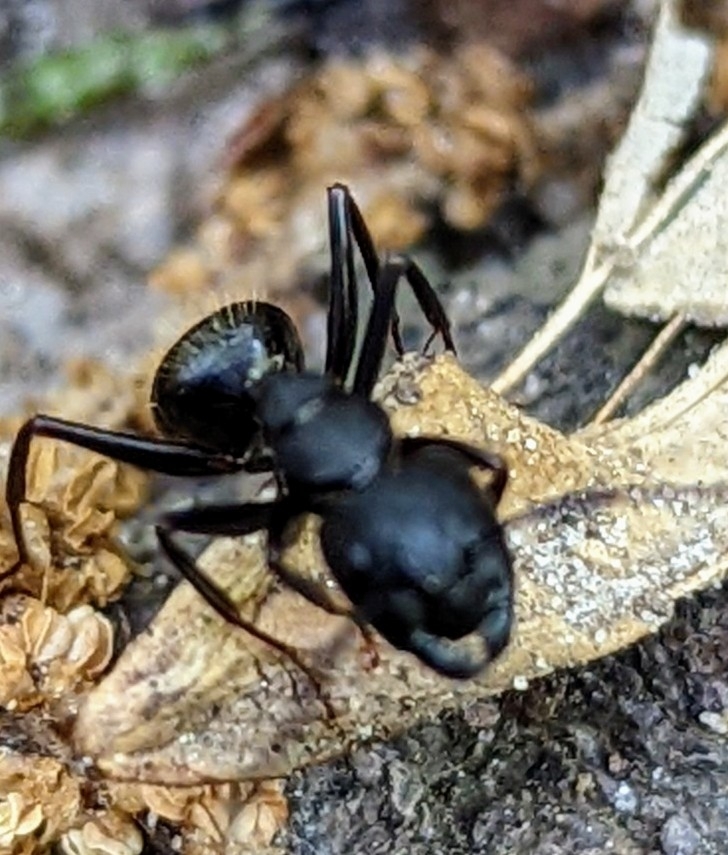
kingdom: Animalia
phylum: Arthropoda
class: Insecta
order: Hymenoptera
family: Formicidae
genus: Camponotus
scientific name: Camponotus pennsylvanicus
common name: Black carpenter ant
